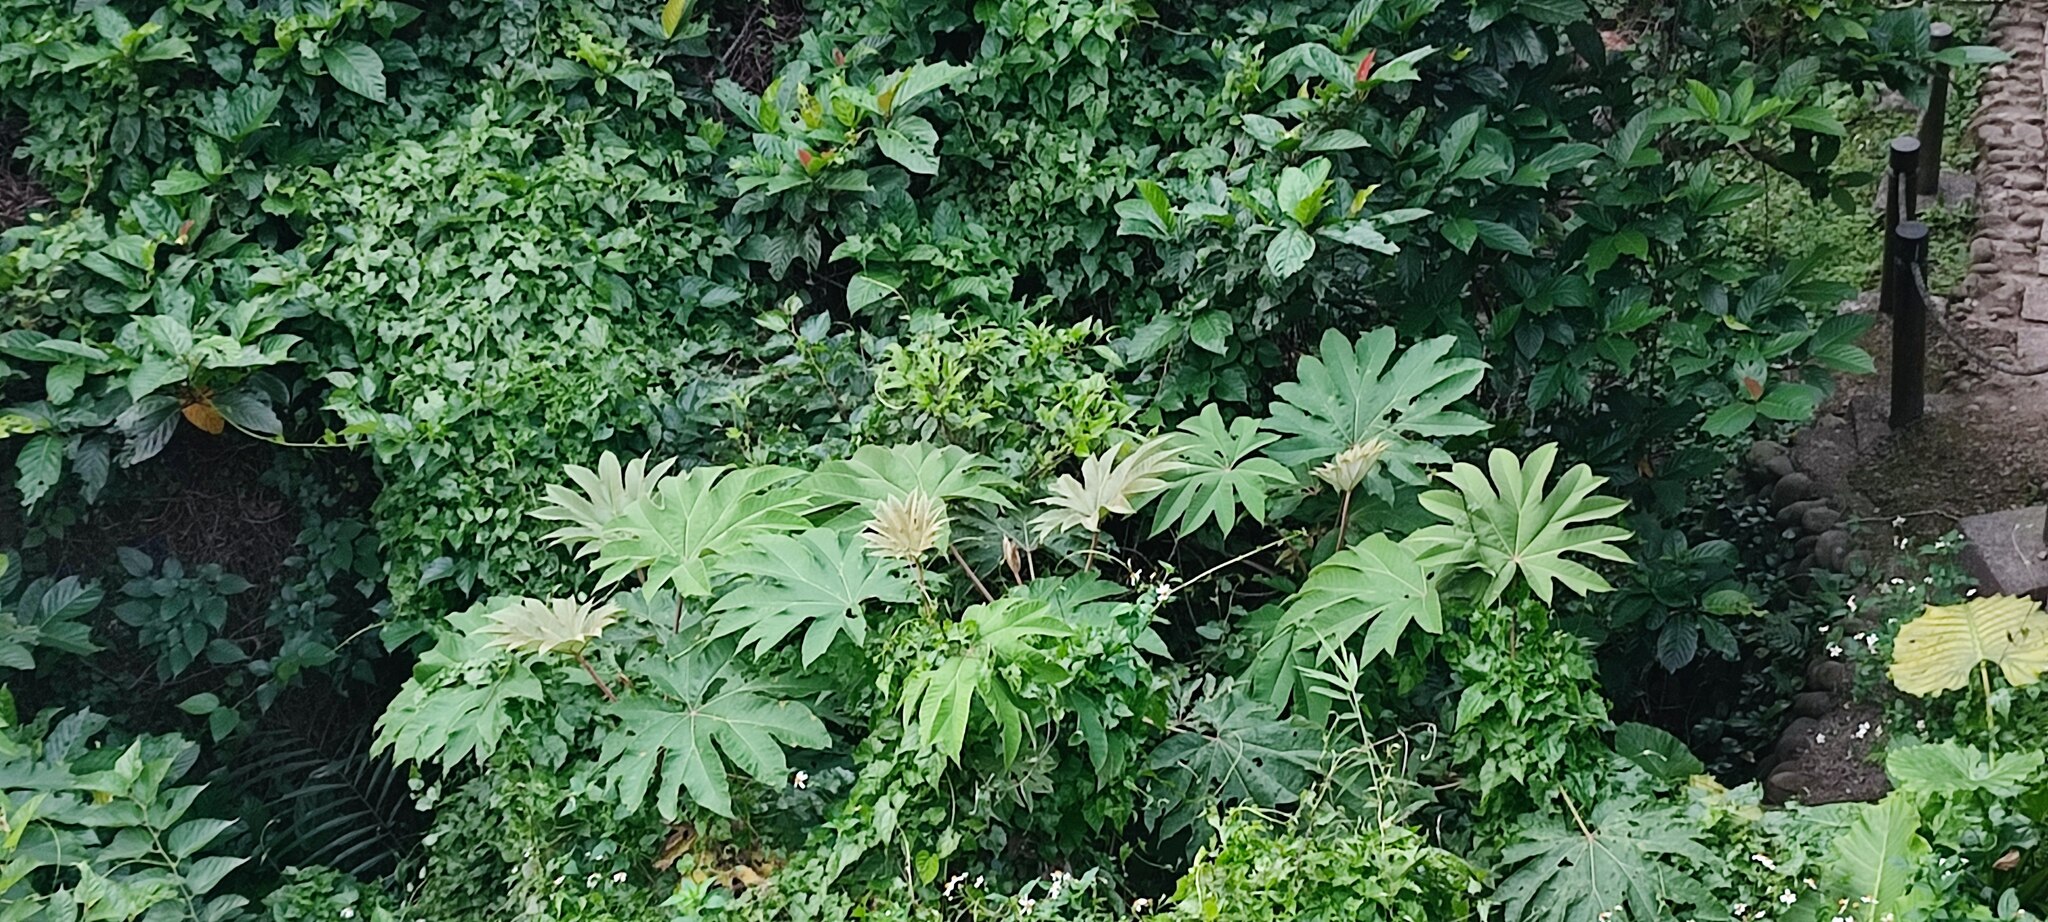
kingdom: Plantae
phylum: Tracheophyta
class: Magnoliopsida
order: Apiales
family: Araliaceae
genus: Tetrapanax
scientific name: Tetrapanax papyrifer
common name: Rice-paper plant
